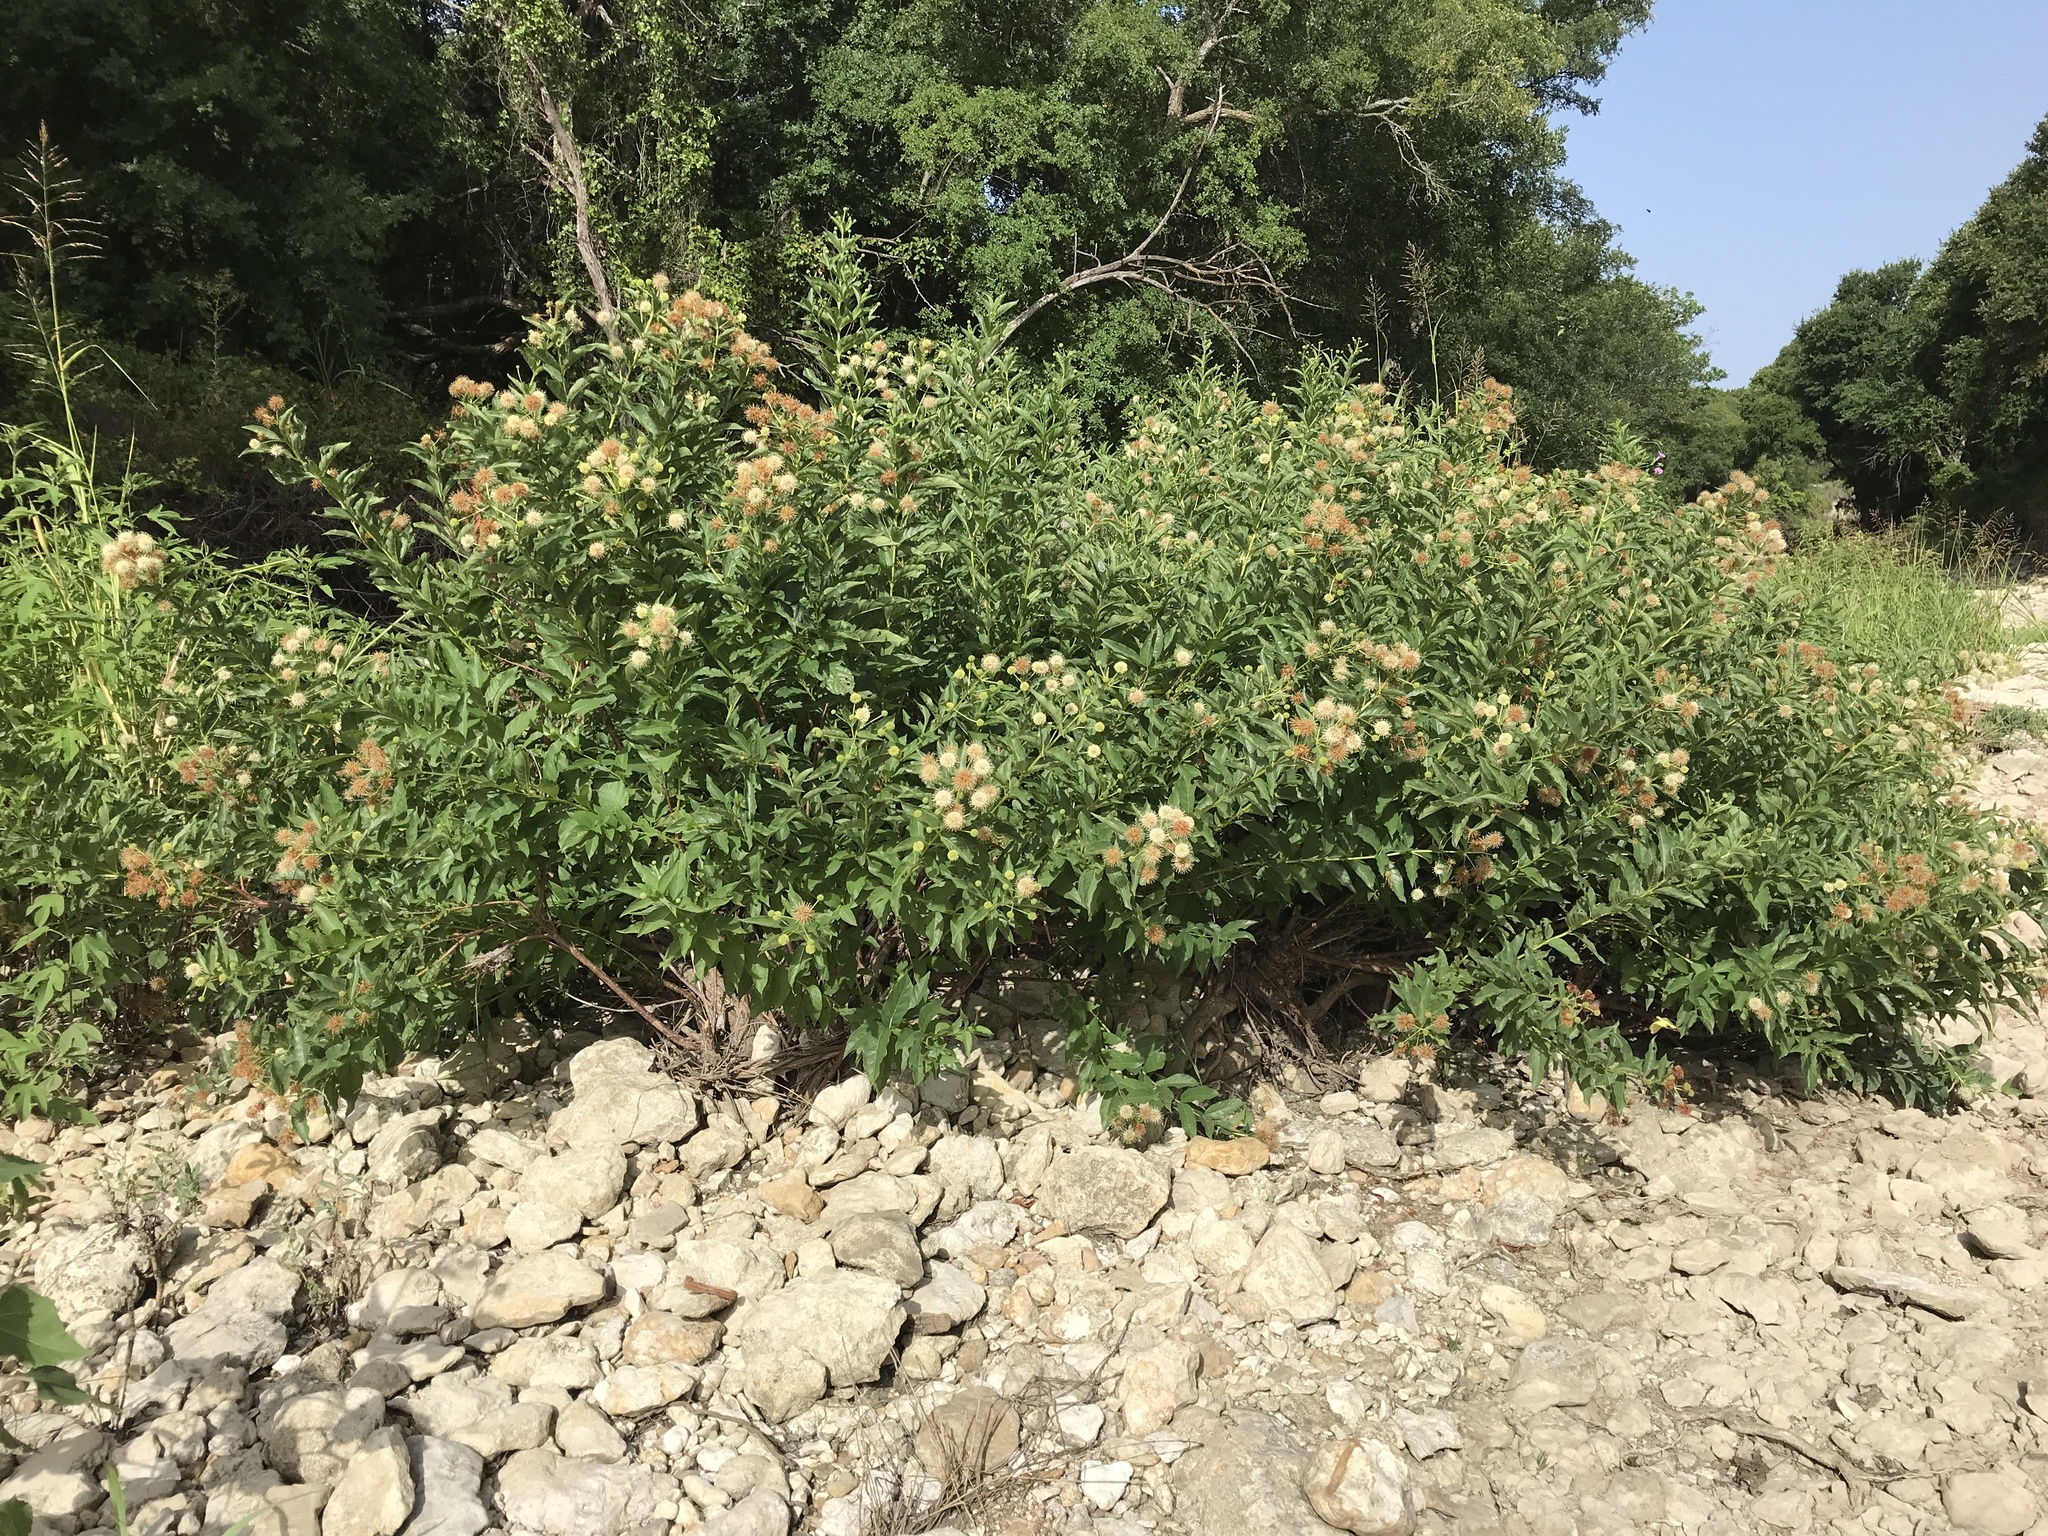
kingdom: Plantae
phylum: Tracheophyta
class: Magnoliopsida
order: Gentianales
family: Rubiaceae
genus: Cephalanthus
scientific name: Cephalanthus occidentalis
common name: Button-willow
